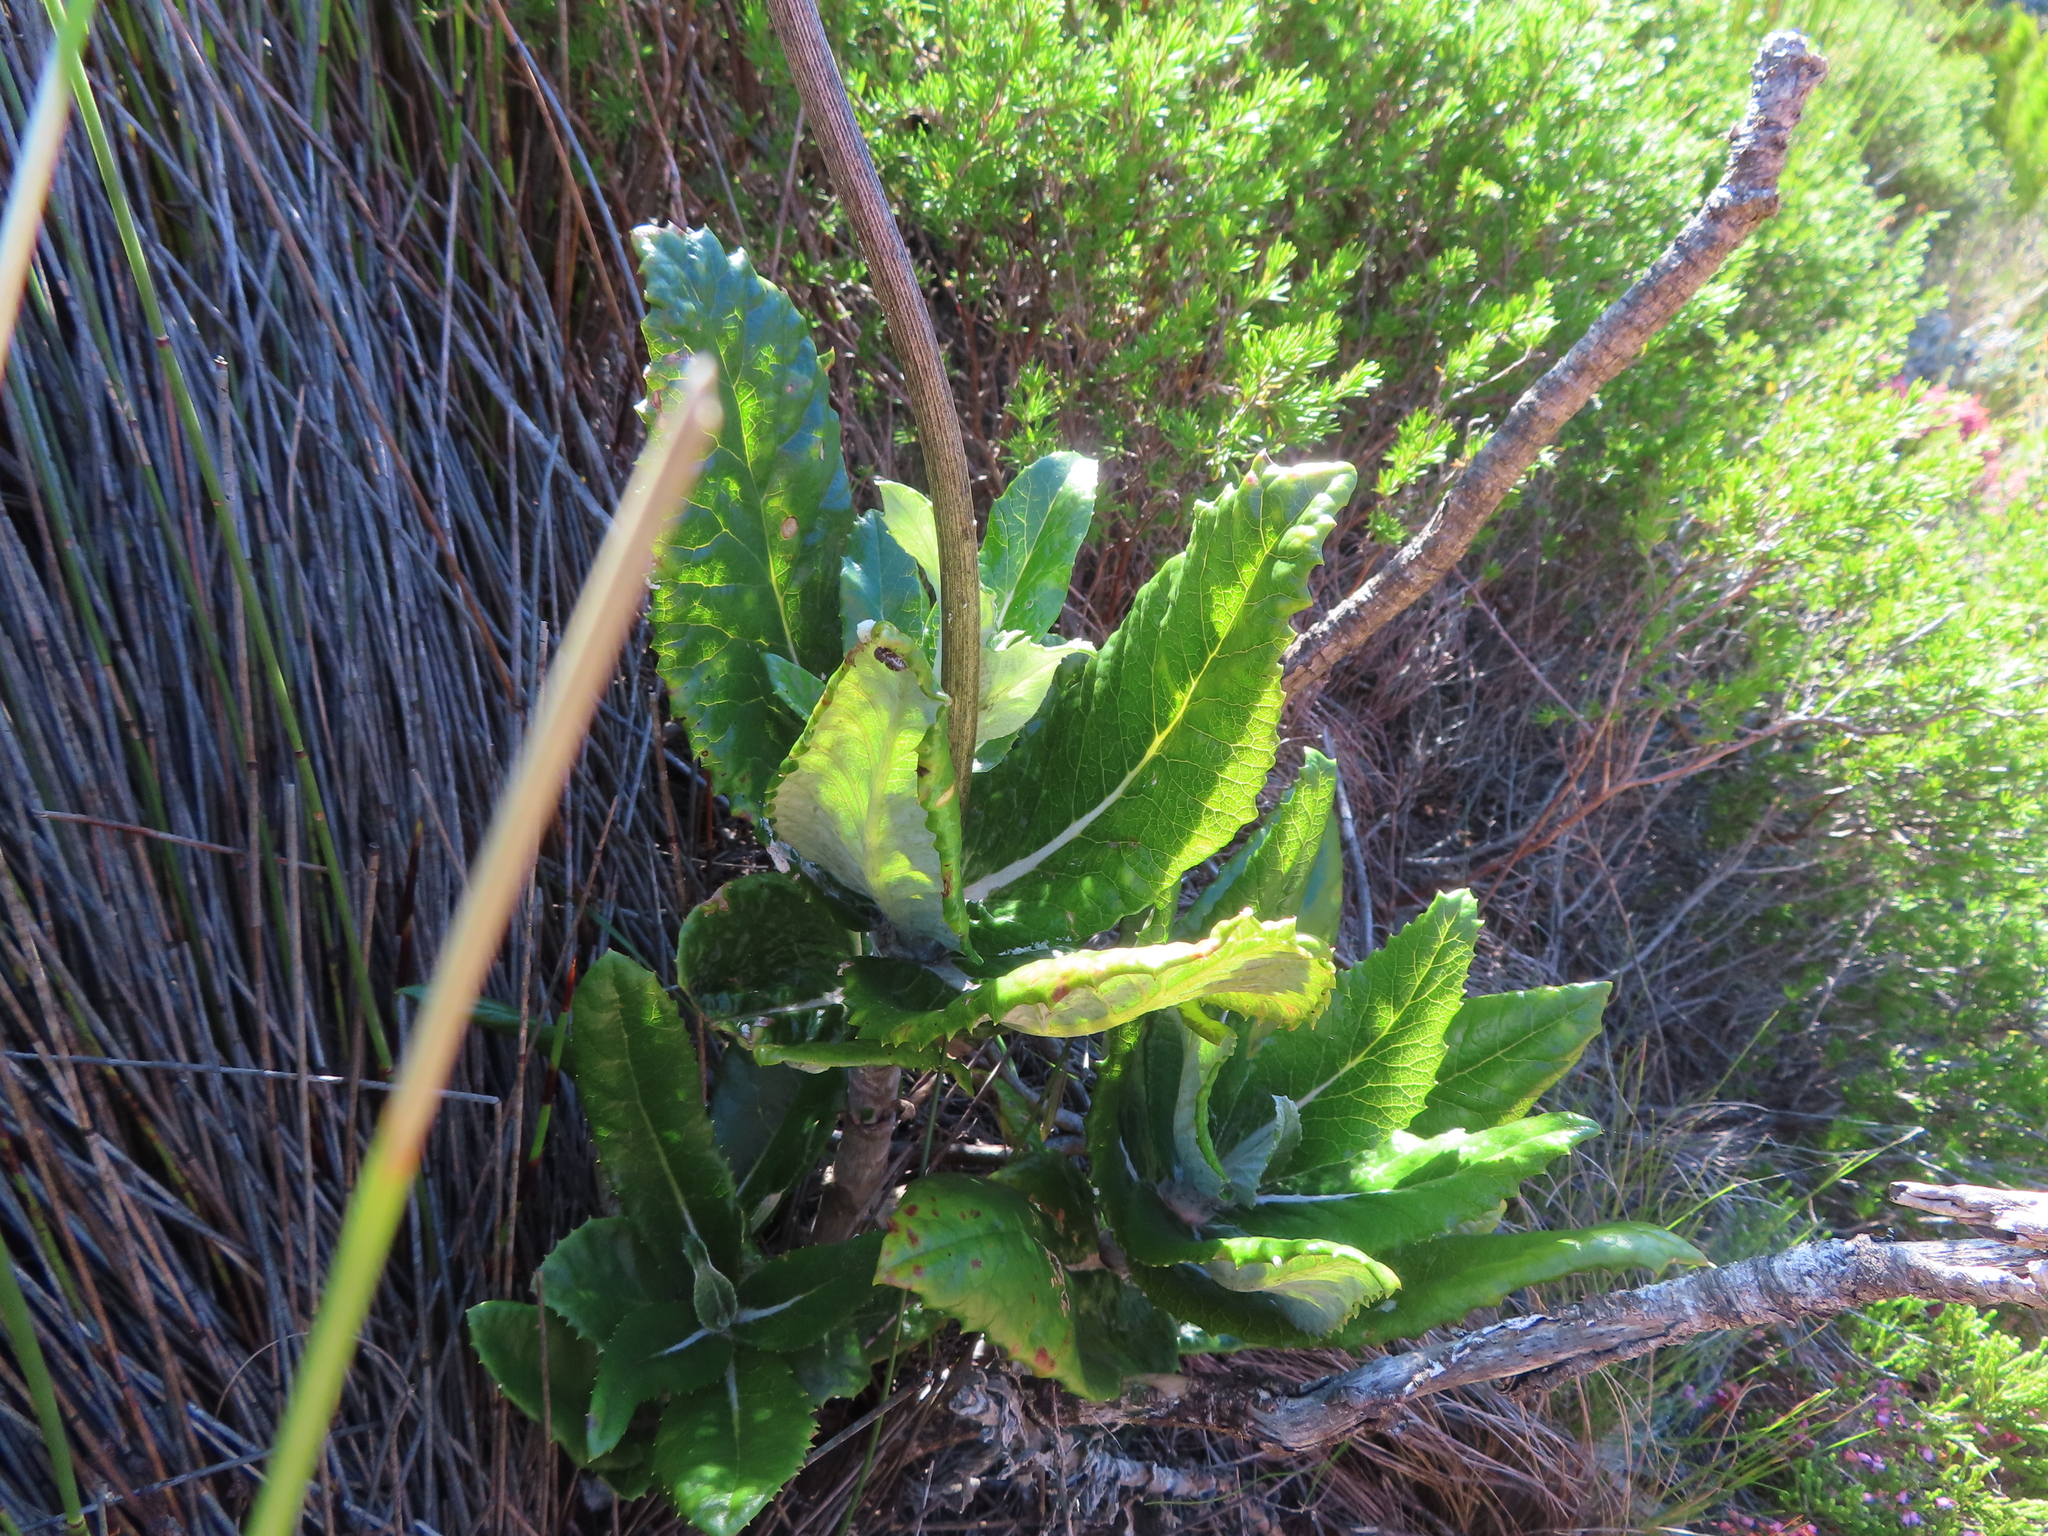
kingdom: Plantae
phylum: Tracheophyta
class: Magnoliopsida
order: Apiales
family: Apiaceae
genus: Hermas
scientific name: Hermas villosa
